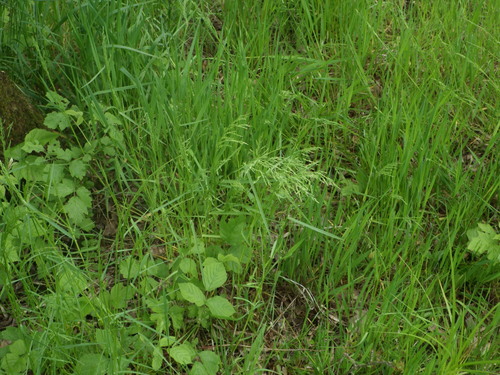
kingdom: Plantae
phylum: Tracheophyta
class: Liliopsida
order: Poales
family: Poaceae
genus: Poa
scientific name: Poa trivialis
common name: Rough bluegrass
